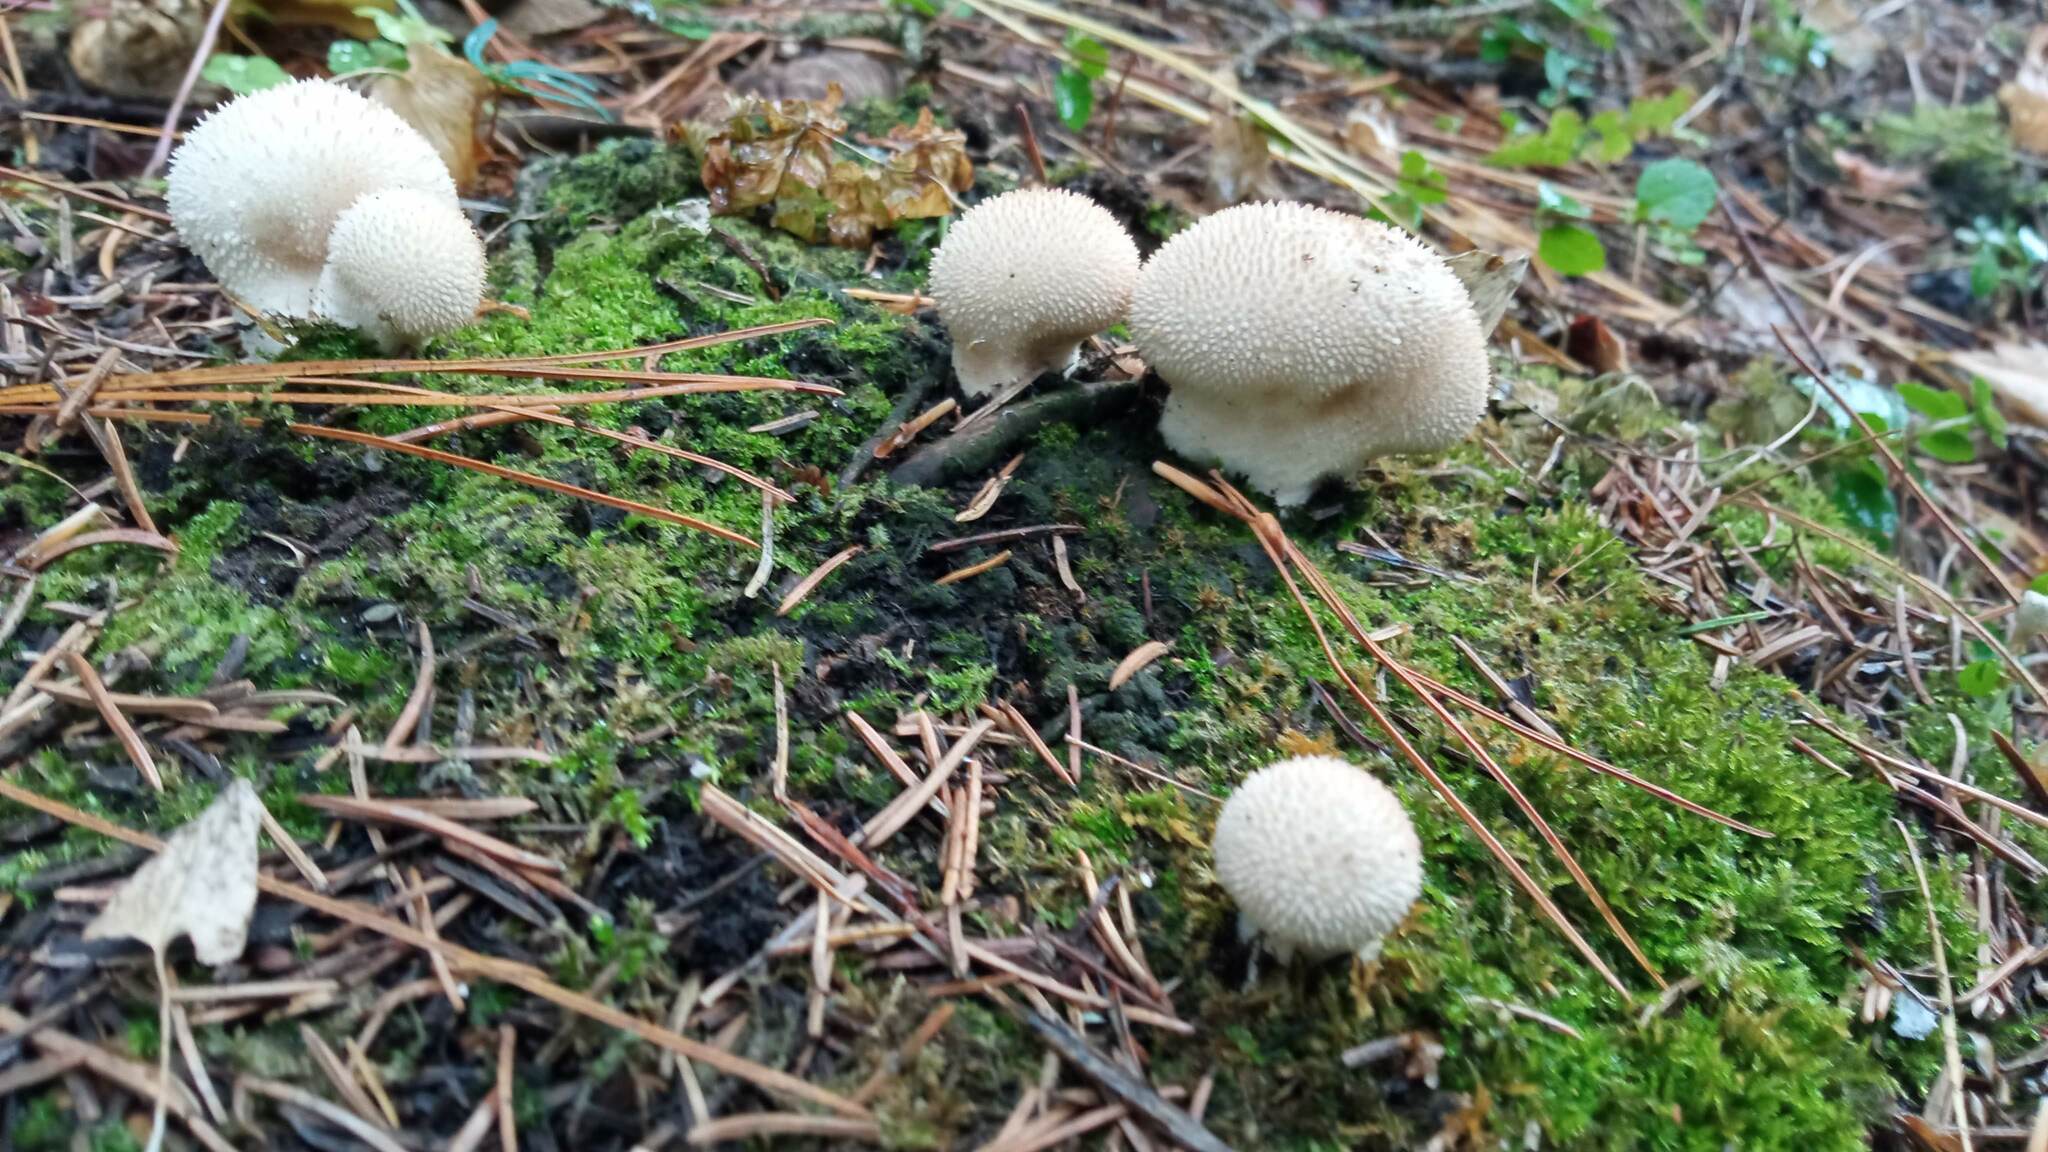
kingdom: Fungi
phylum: Basidiomycota
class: Agaricomycetes
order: Agaricales
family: Lycoperdaceae
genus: Lycoperdon
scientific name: Lycoperdon perlatum
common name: Common puffball
